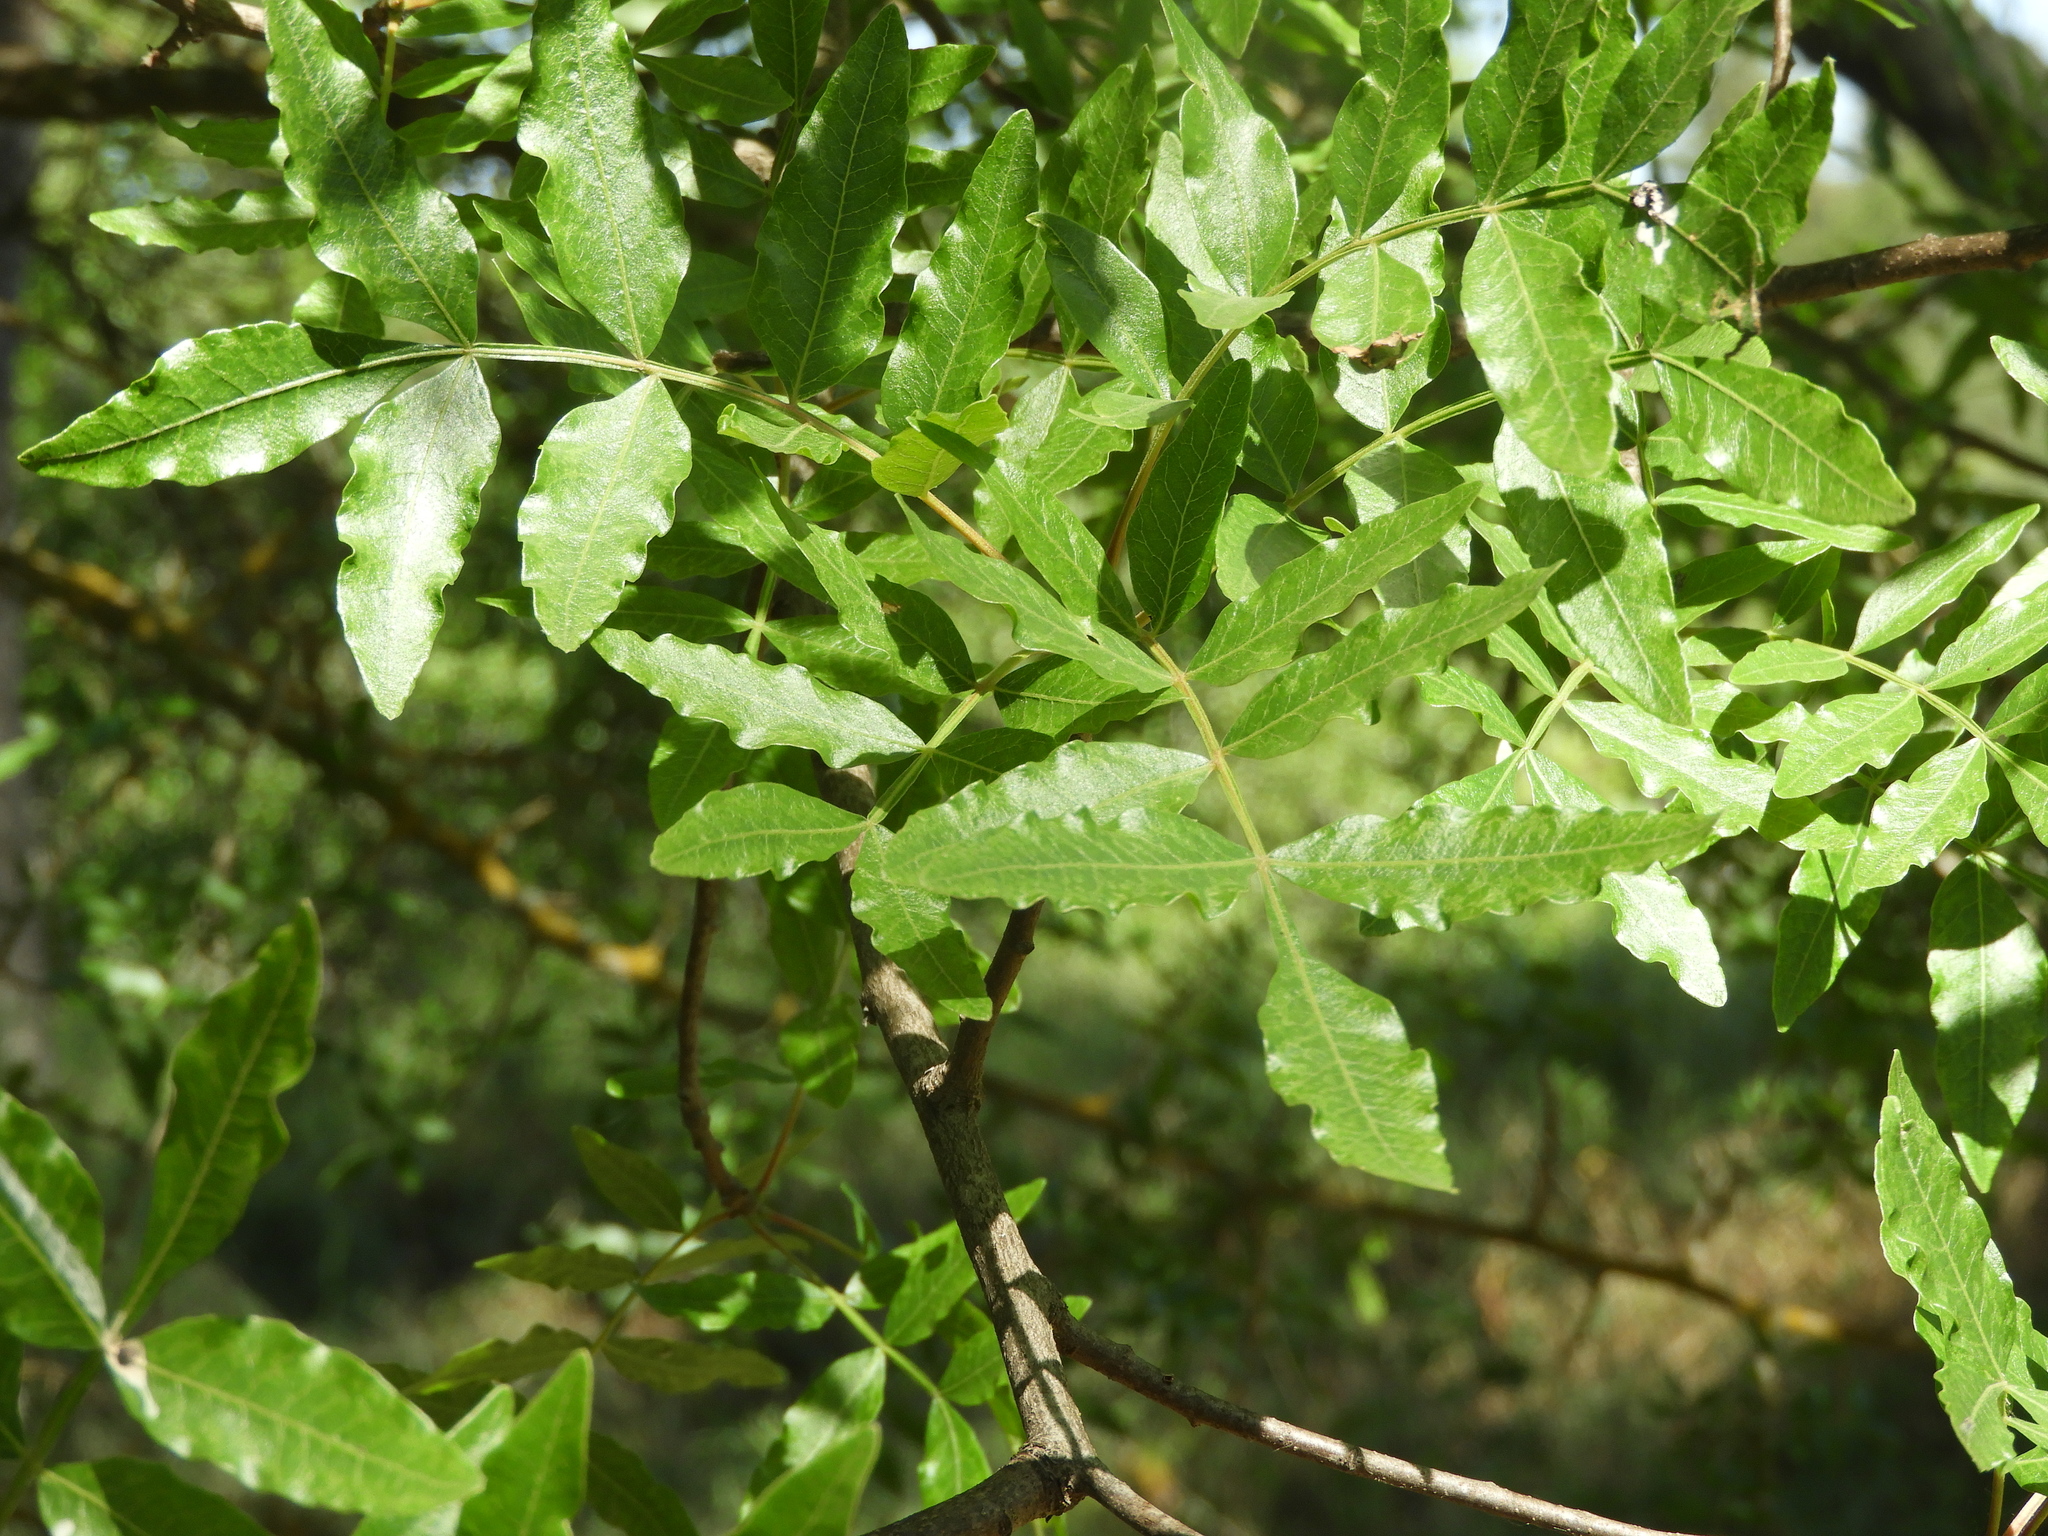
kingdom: Plantae
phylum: Tracheophyta
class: Magnoliopsida
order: Sapindales
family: Anacardiaceae
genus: Pistacia
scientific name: Pistacia atlantica
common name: Mt. atlas mastic tree
